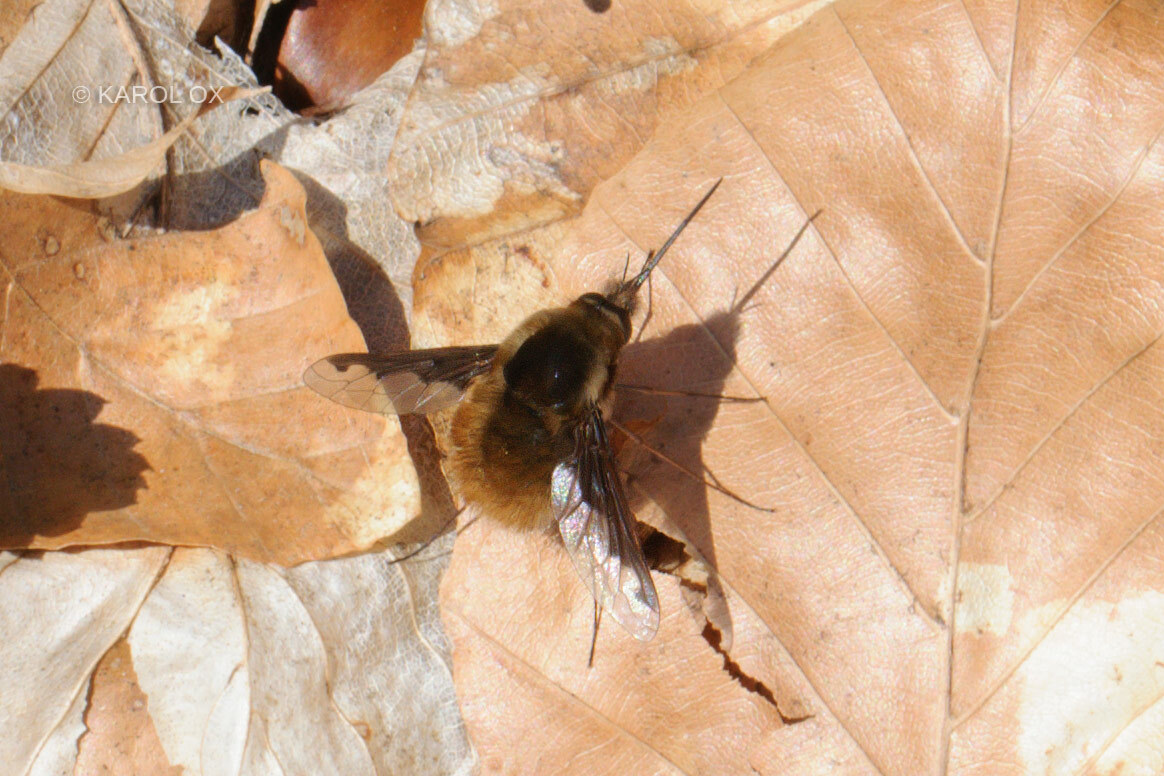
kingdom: Animalia
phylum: Arthropoda
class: Insecta
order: Diptera
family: Bombyliidae
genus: Bombylius
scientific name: Bombylius major
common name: Bee fly
